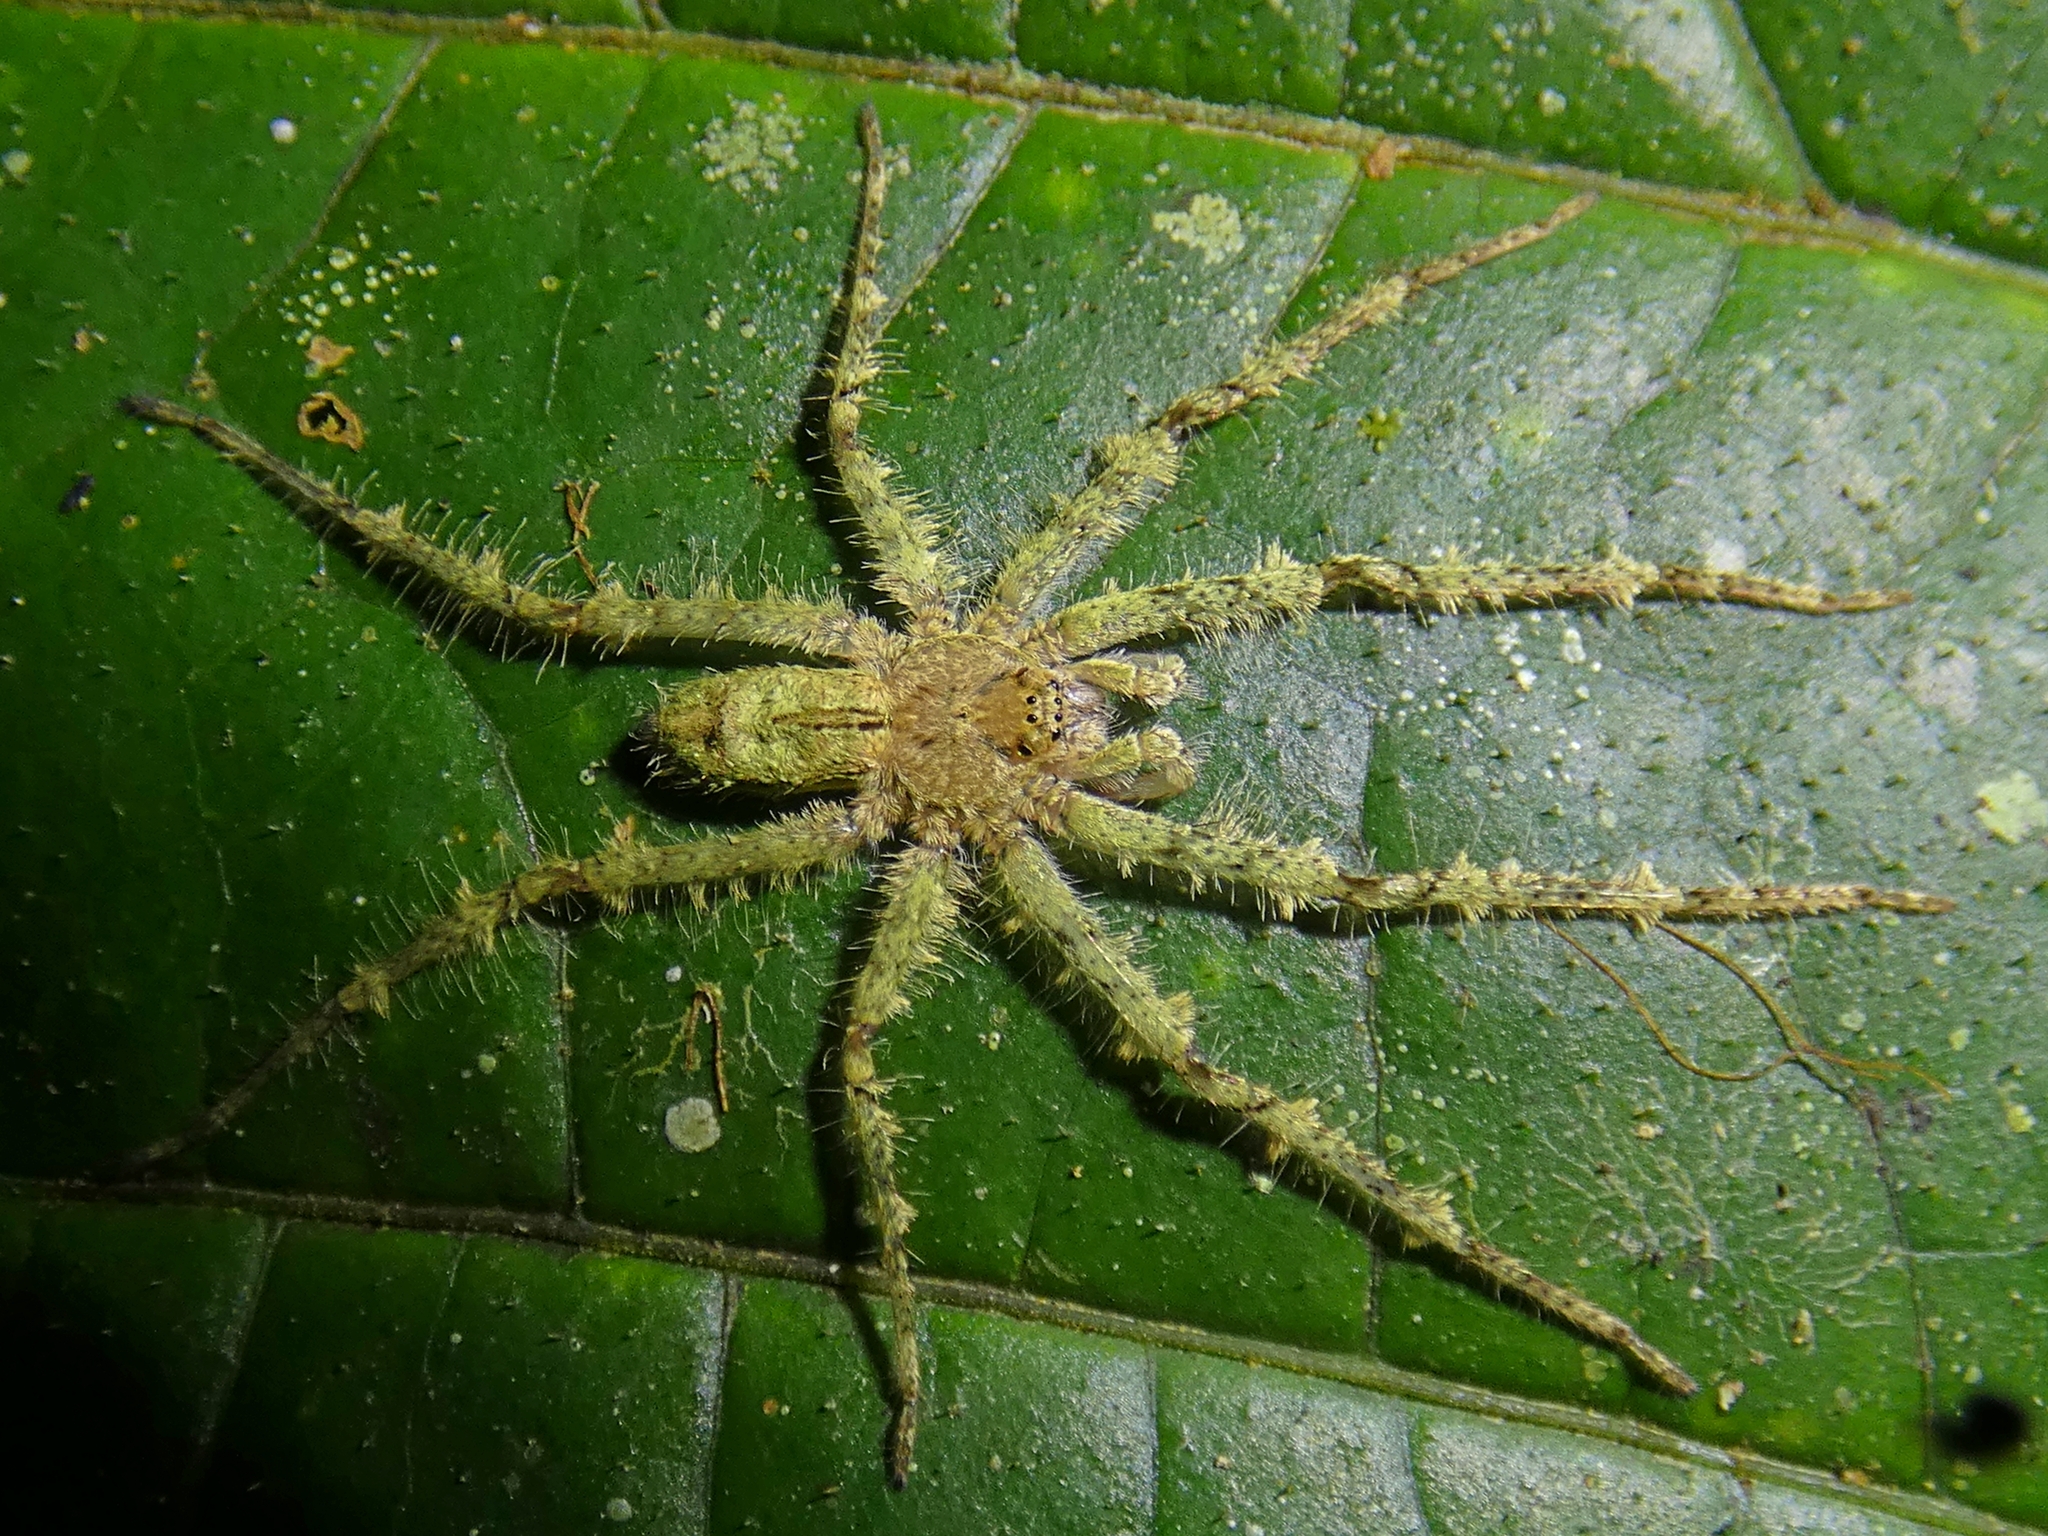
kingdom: Animalia
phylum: Arthropoda
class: Arachnida
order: Araneae
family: Sparassidae
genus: Pandercetes
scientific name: Pandercetes gracilis
